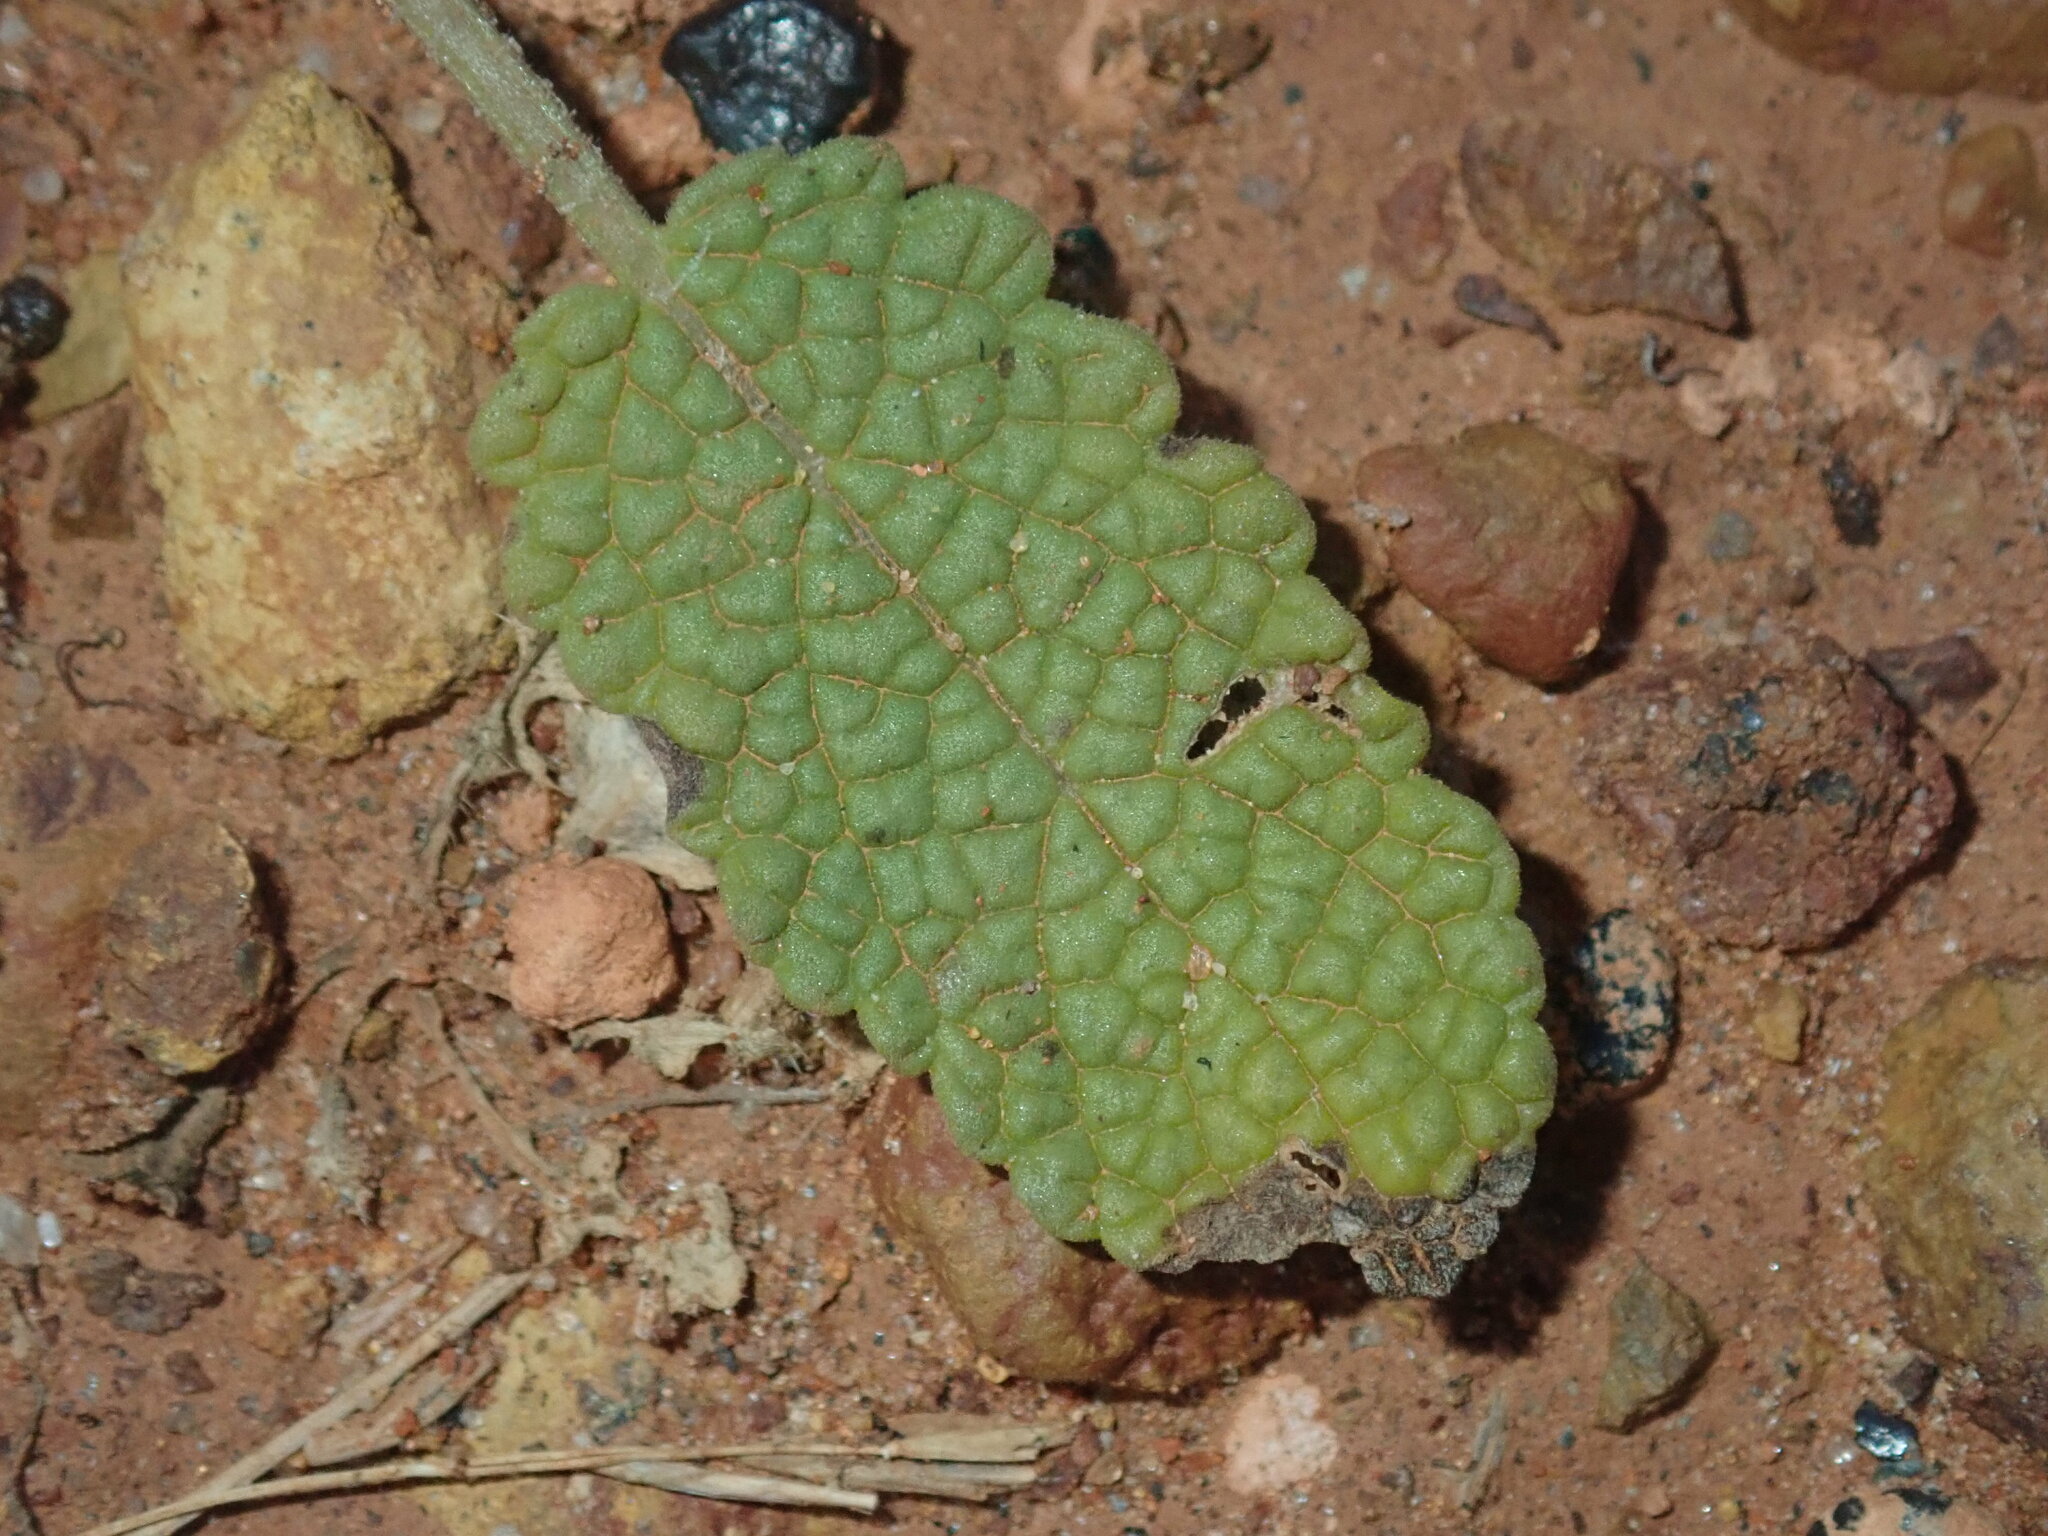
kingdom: Plantae
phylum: Tracheophyta
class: Magnoliopsida
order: Lamiales
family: Lamiaceae
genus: Salvia
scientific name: Salvia verbenaca
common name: Wild clary
